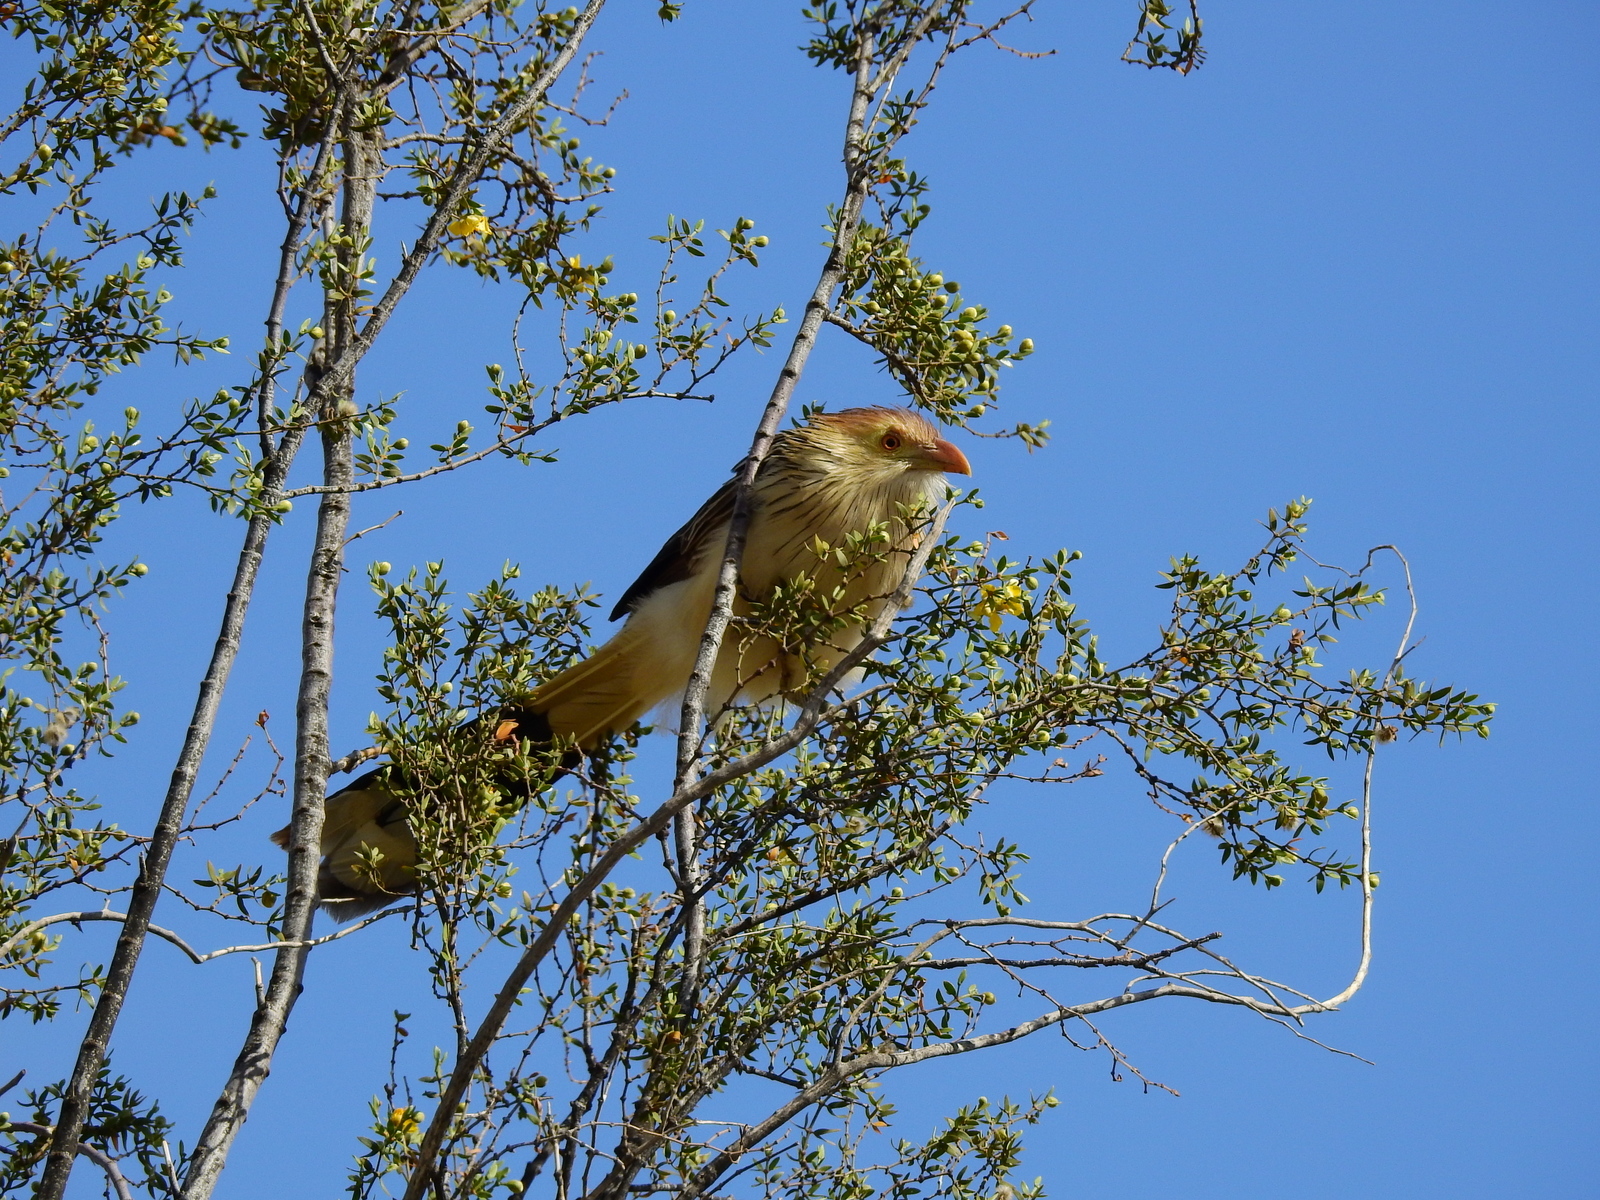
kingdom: Animalia
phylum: Chordata
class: Aves
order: Cuculiformes
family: Cuculidae
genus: Guira
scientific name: Guira guira
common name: Guira cuckoo
